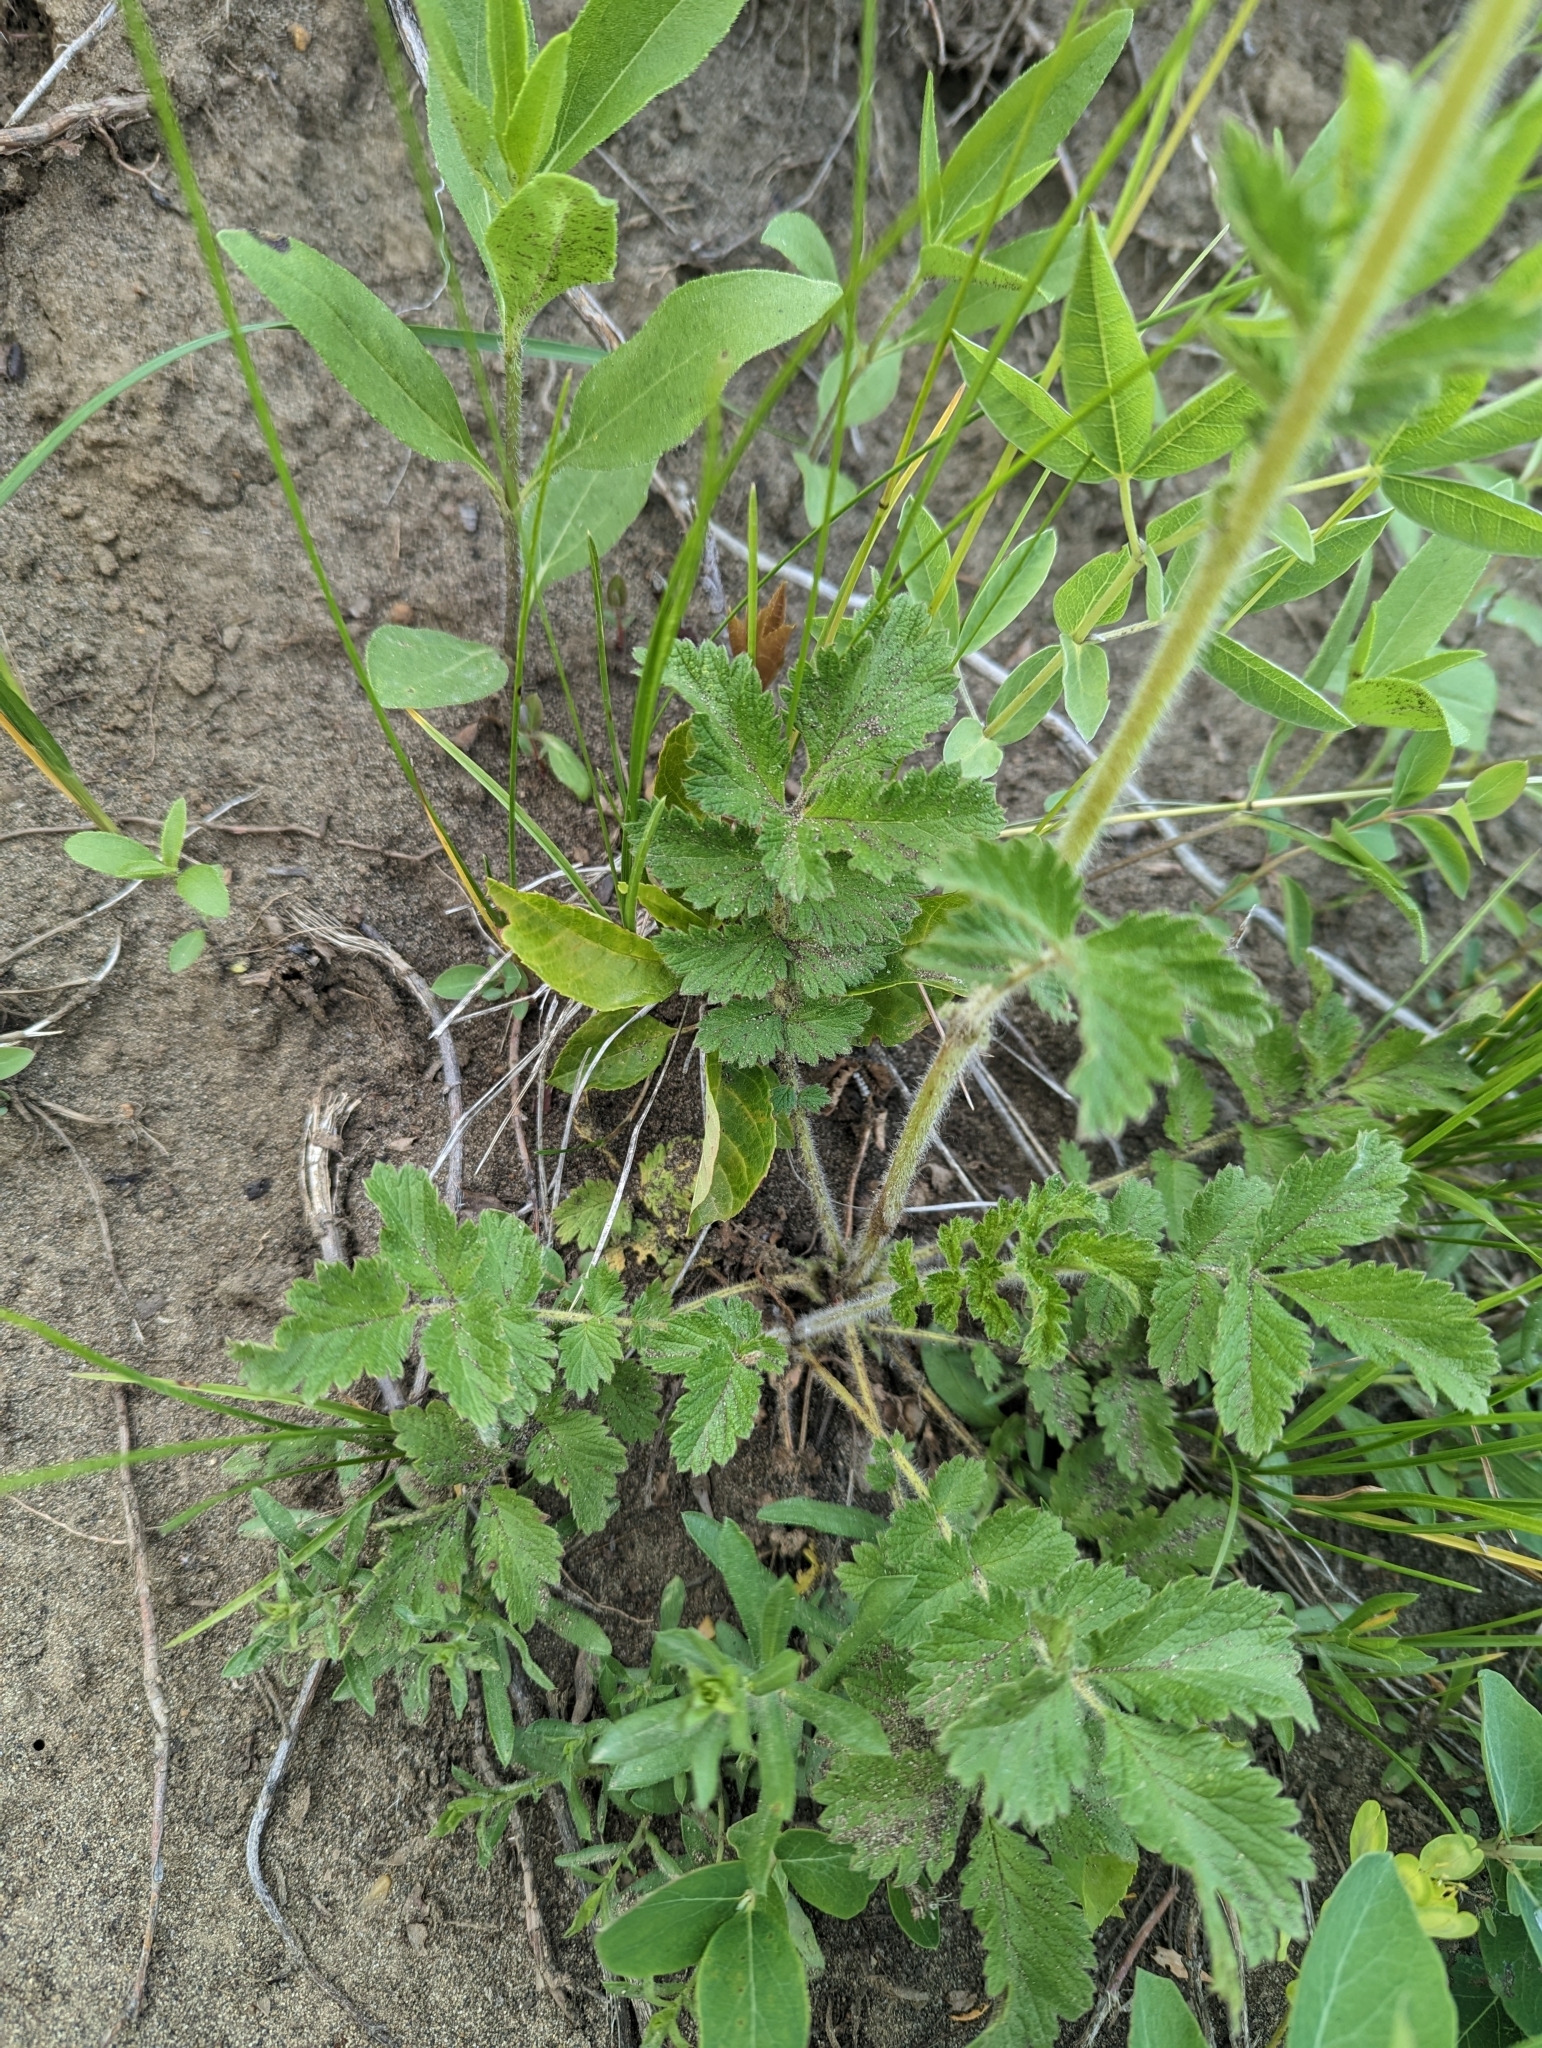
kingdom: Plantae
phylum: Tracheophyta
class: Magnoliopsida
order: Rosales
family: Rosaceae
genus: Drymocallis
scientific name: Drymocallis arguta
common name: Tall cinquefoil
